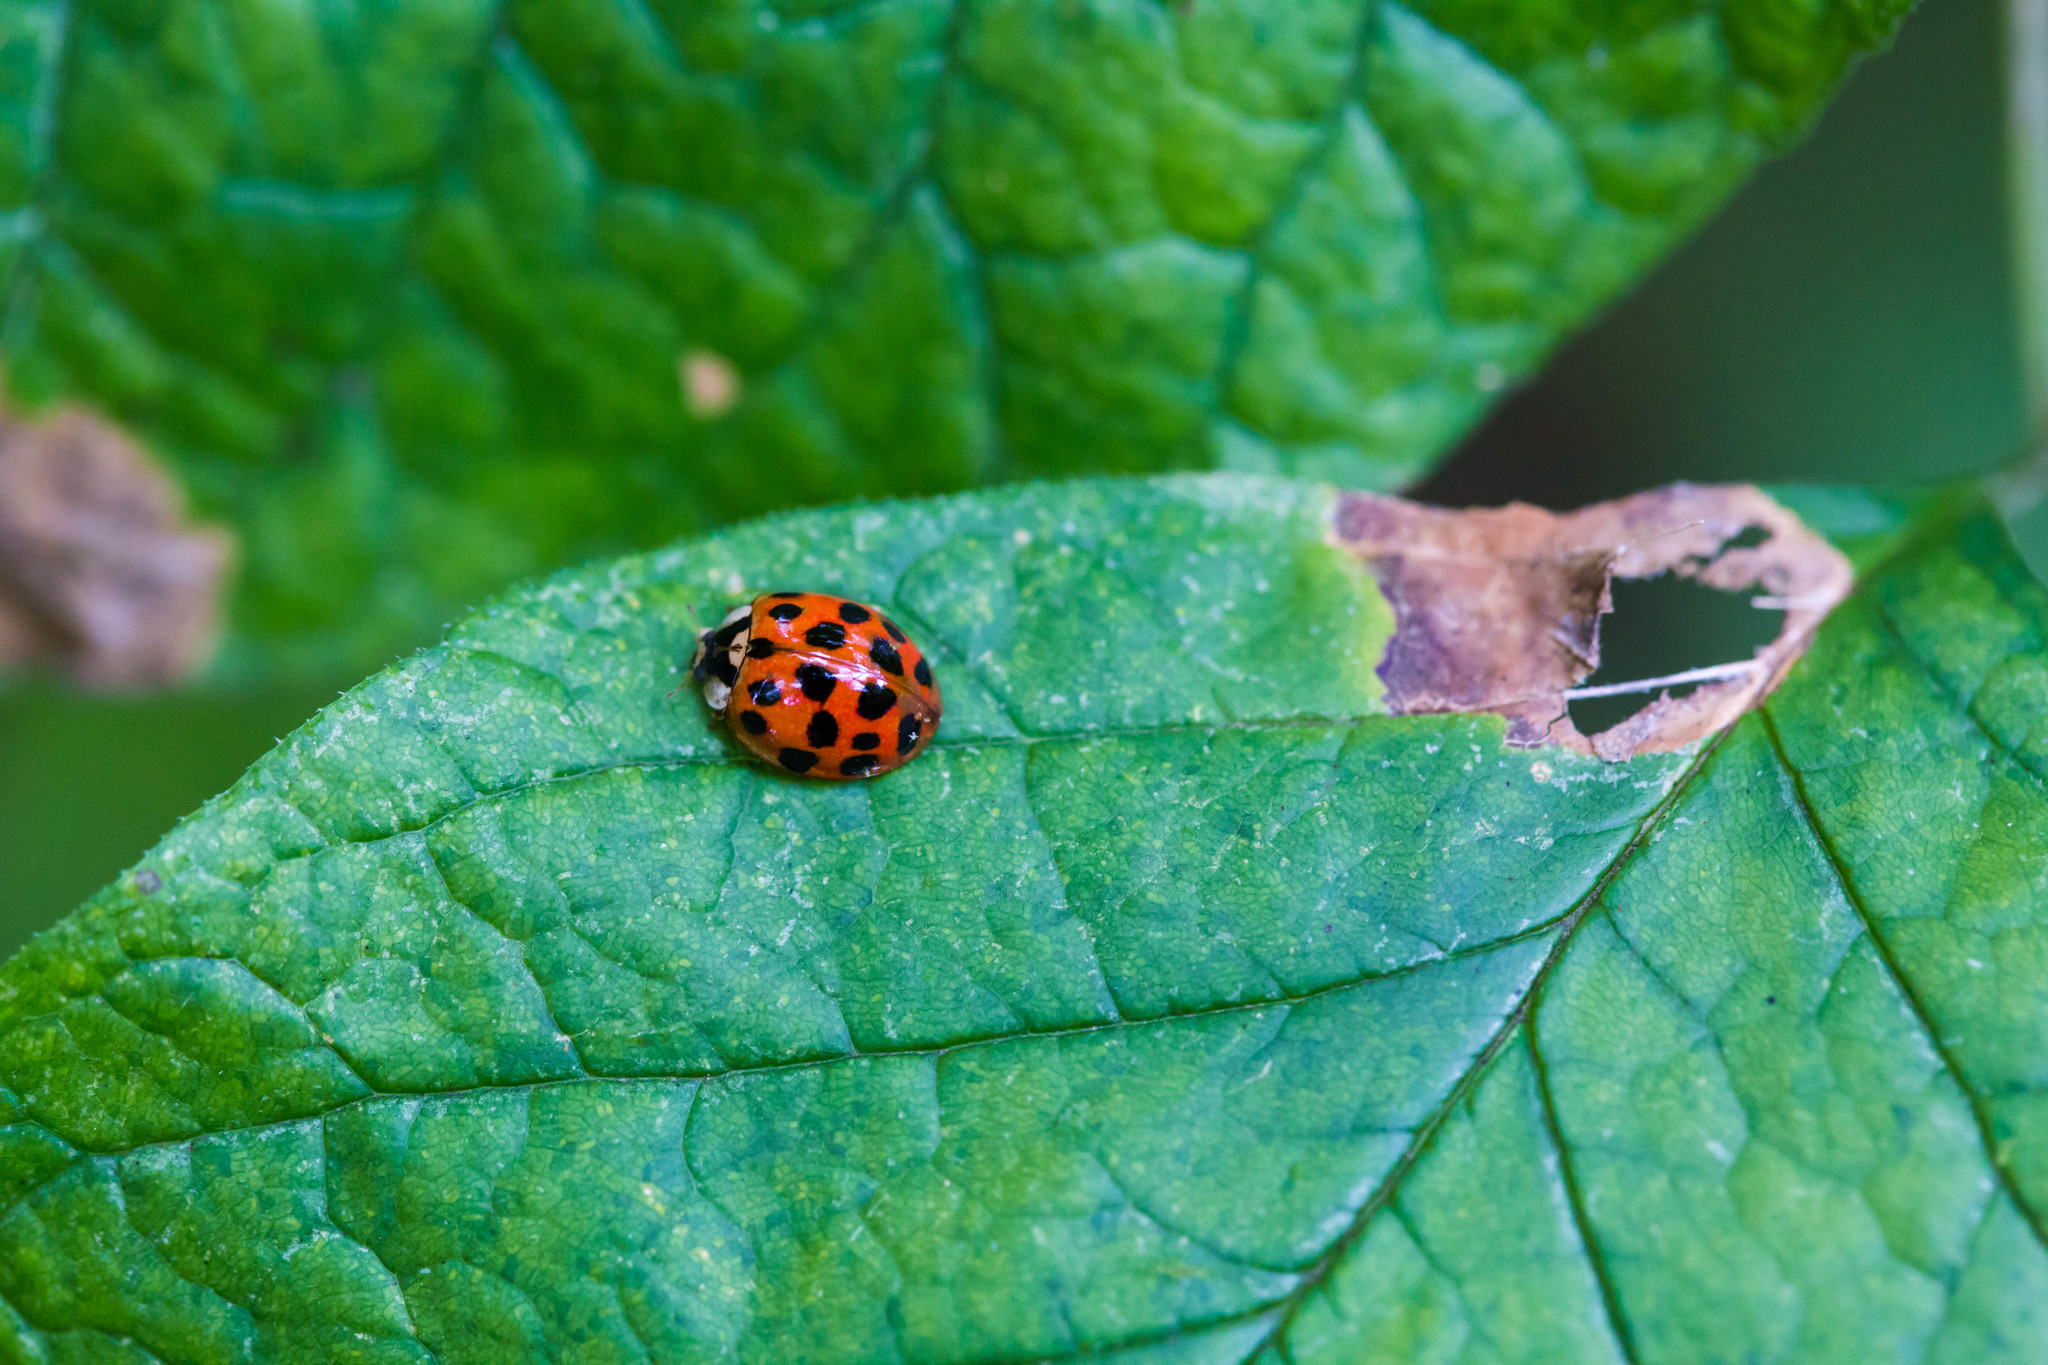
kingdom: Animalia
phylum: Arthropoda
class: Insecta
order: Coleoptera
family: Coccinellidae
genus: Harmonia
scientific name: Harmonia axyridis
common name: Harlequin ladybird
